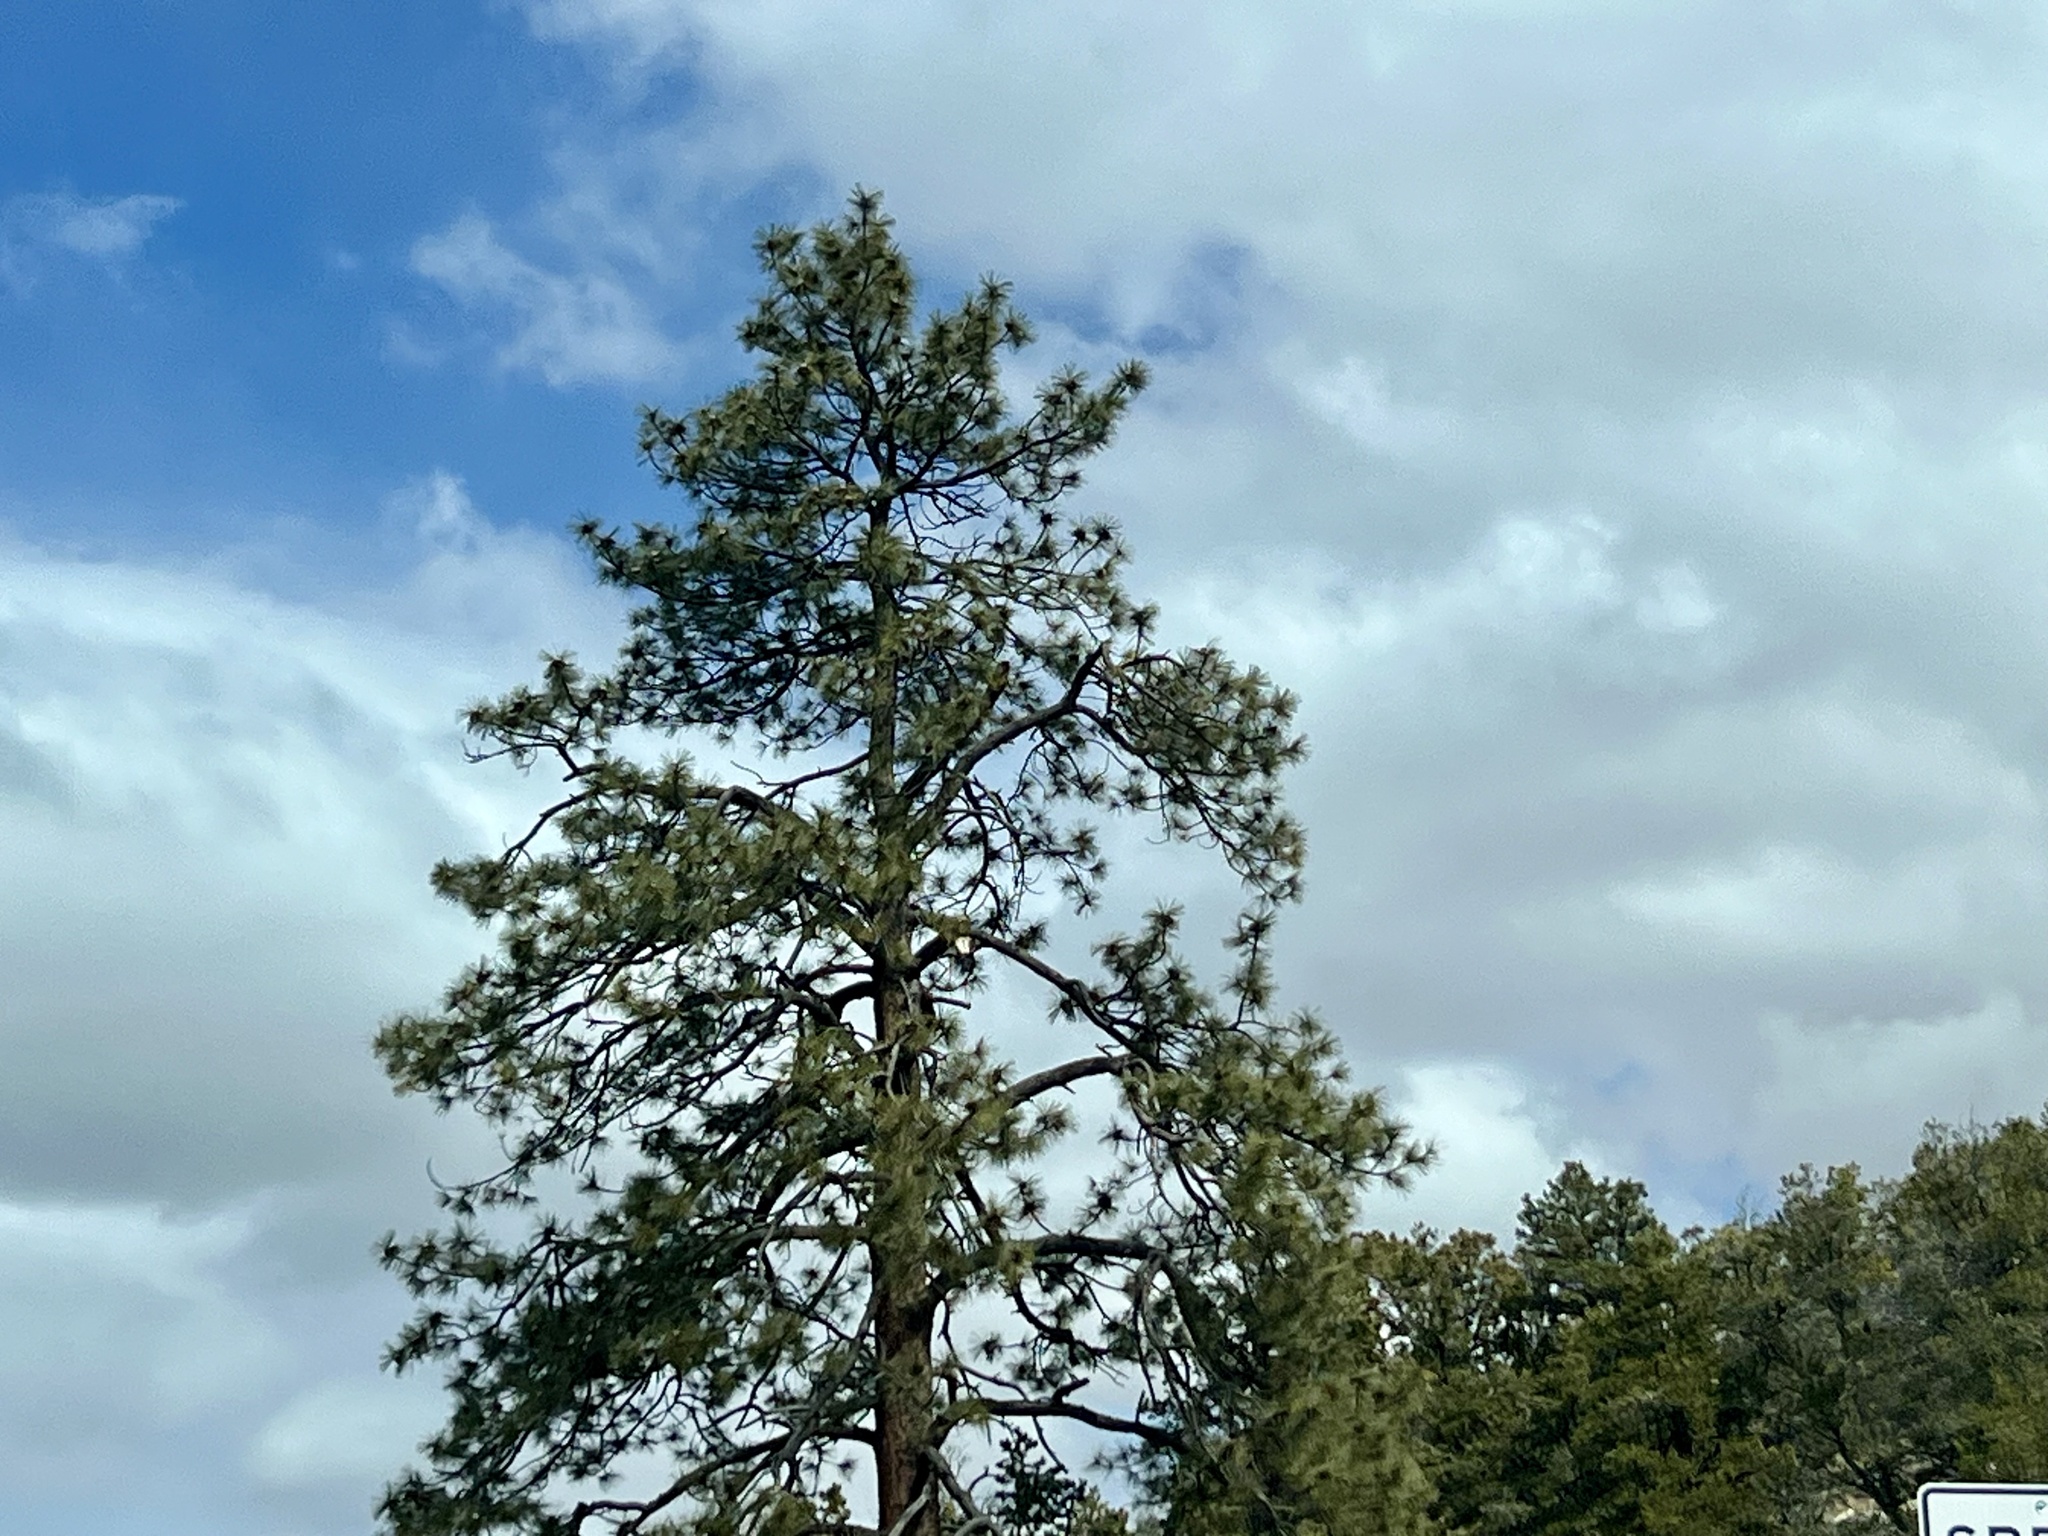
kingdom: Plantae
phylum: Tracheophyta
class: Pinopsida
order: Pinales
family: Pinaceae
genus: Pinus
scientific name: Pinus ponderosa
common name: Western yellow-pine
